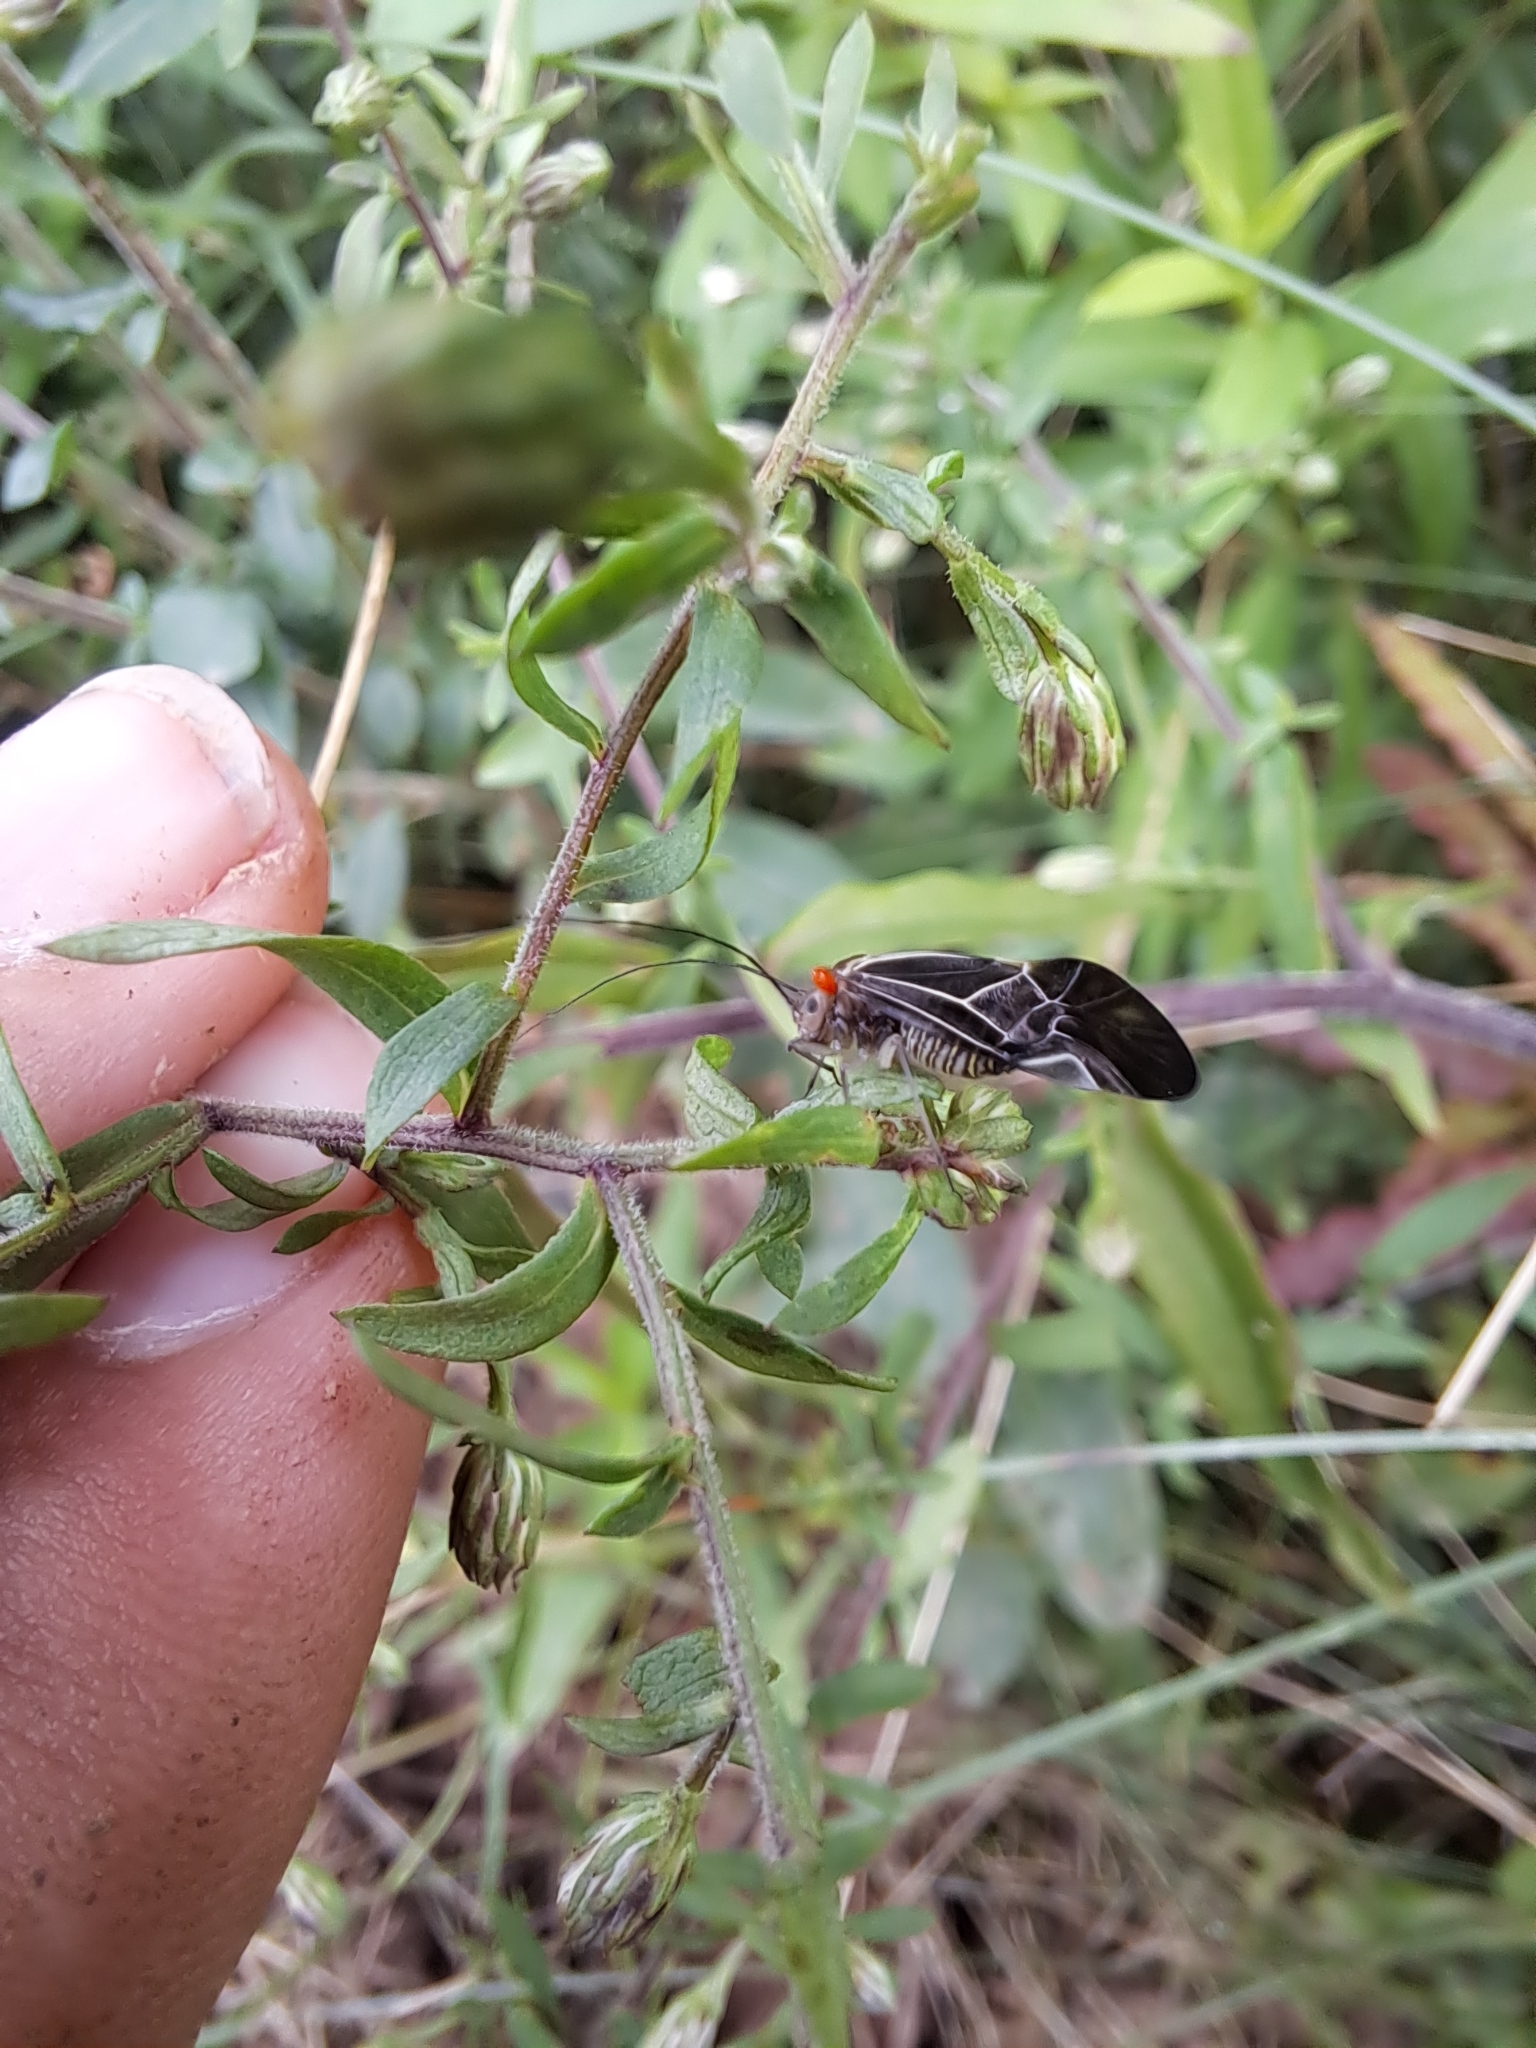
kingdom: Animalia
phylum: Arthropoda
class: Insecta
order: Psocodea
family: Psocidae
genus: Cerastipsocus
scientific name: Cerastipsocus venosus
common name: Tree cattle
